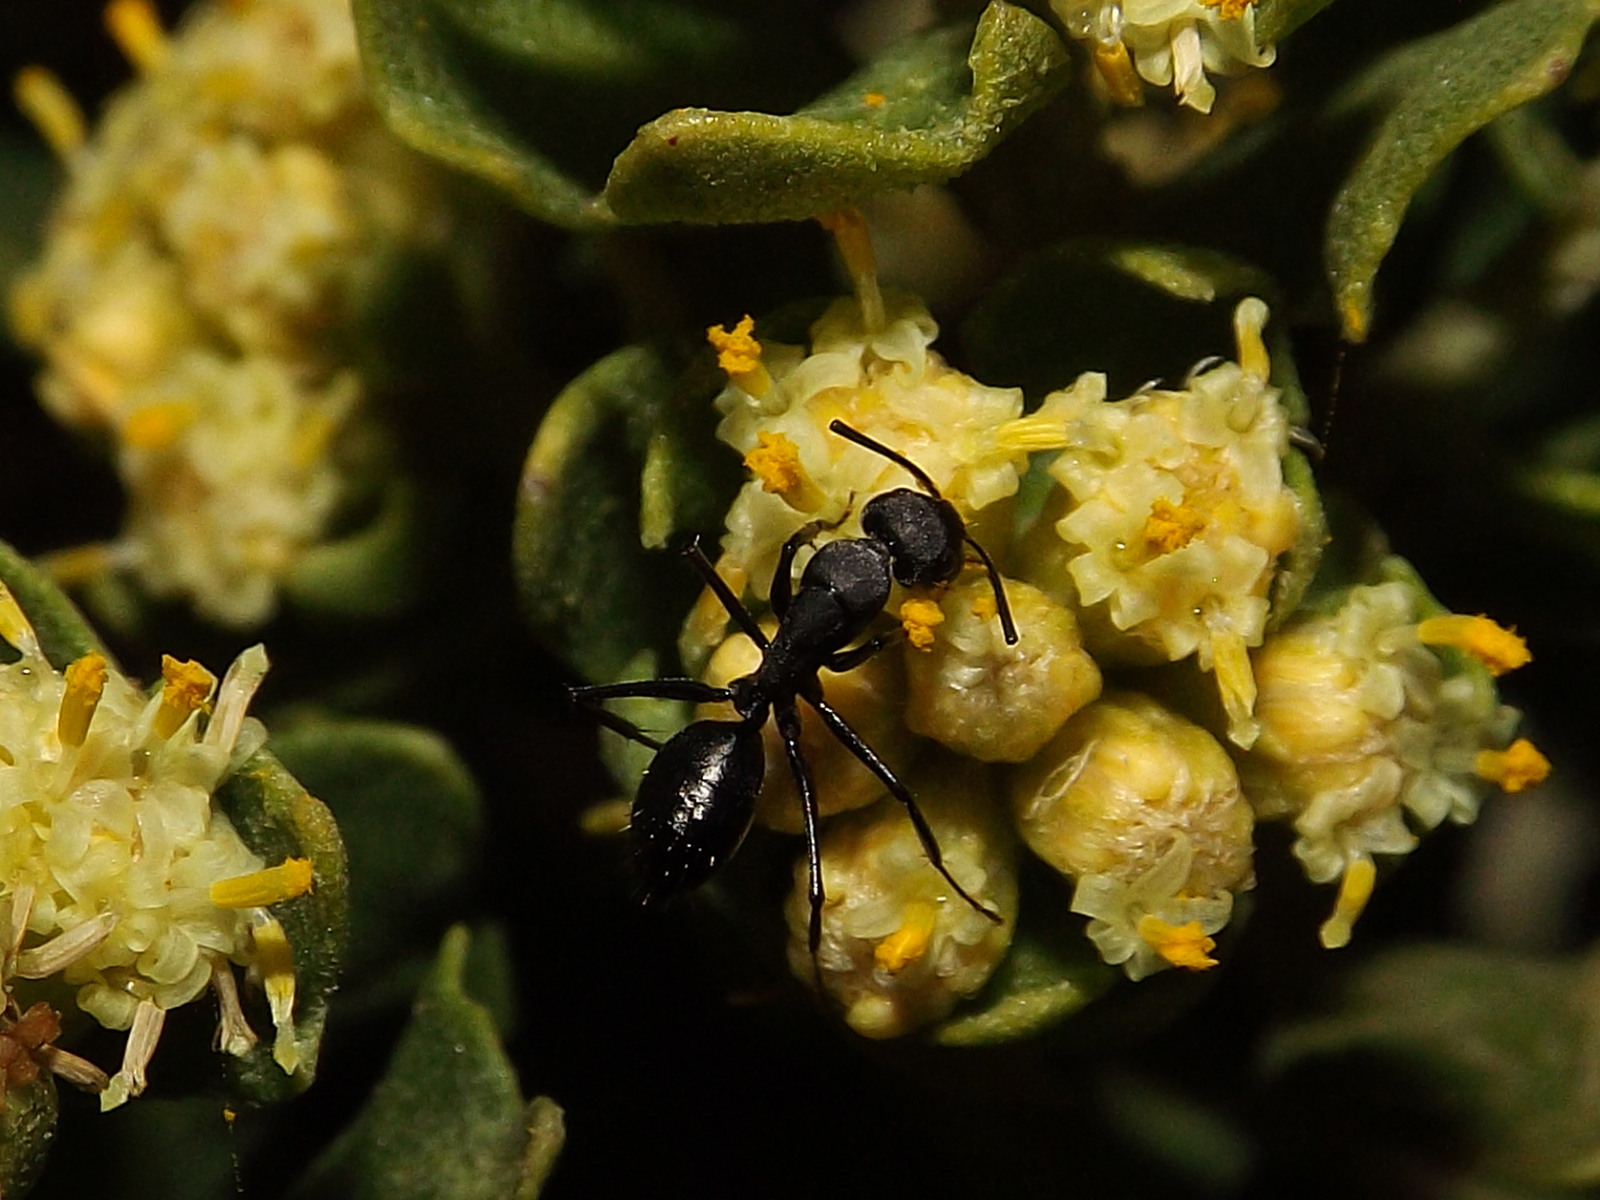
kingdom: Animalia
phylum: Arthropoda
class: Insecta
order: Hymenoptera
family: Formicidae
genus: Camponotus
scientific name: Camponotus morosus
